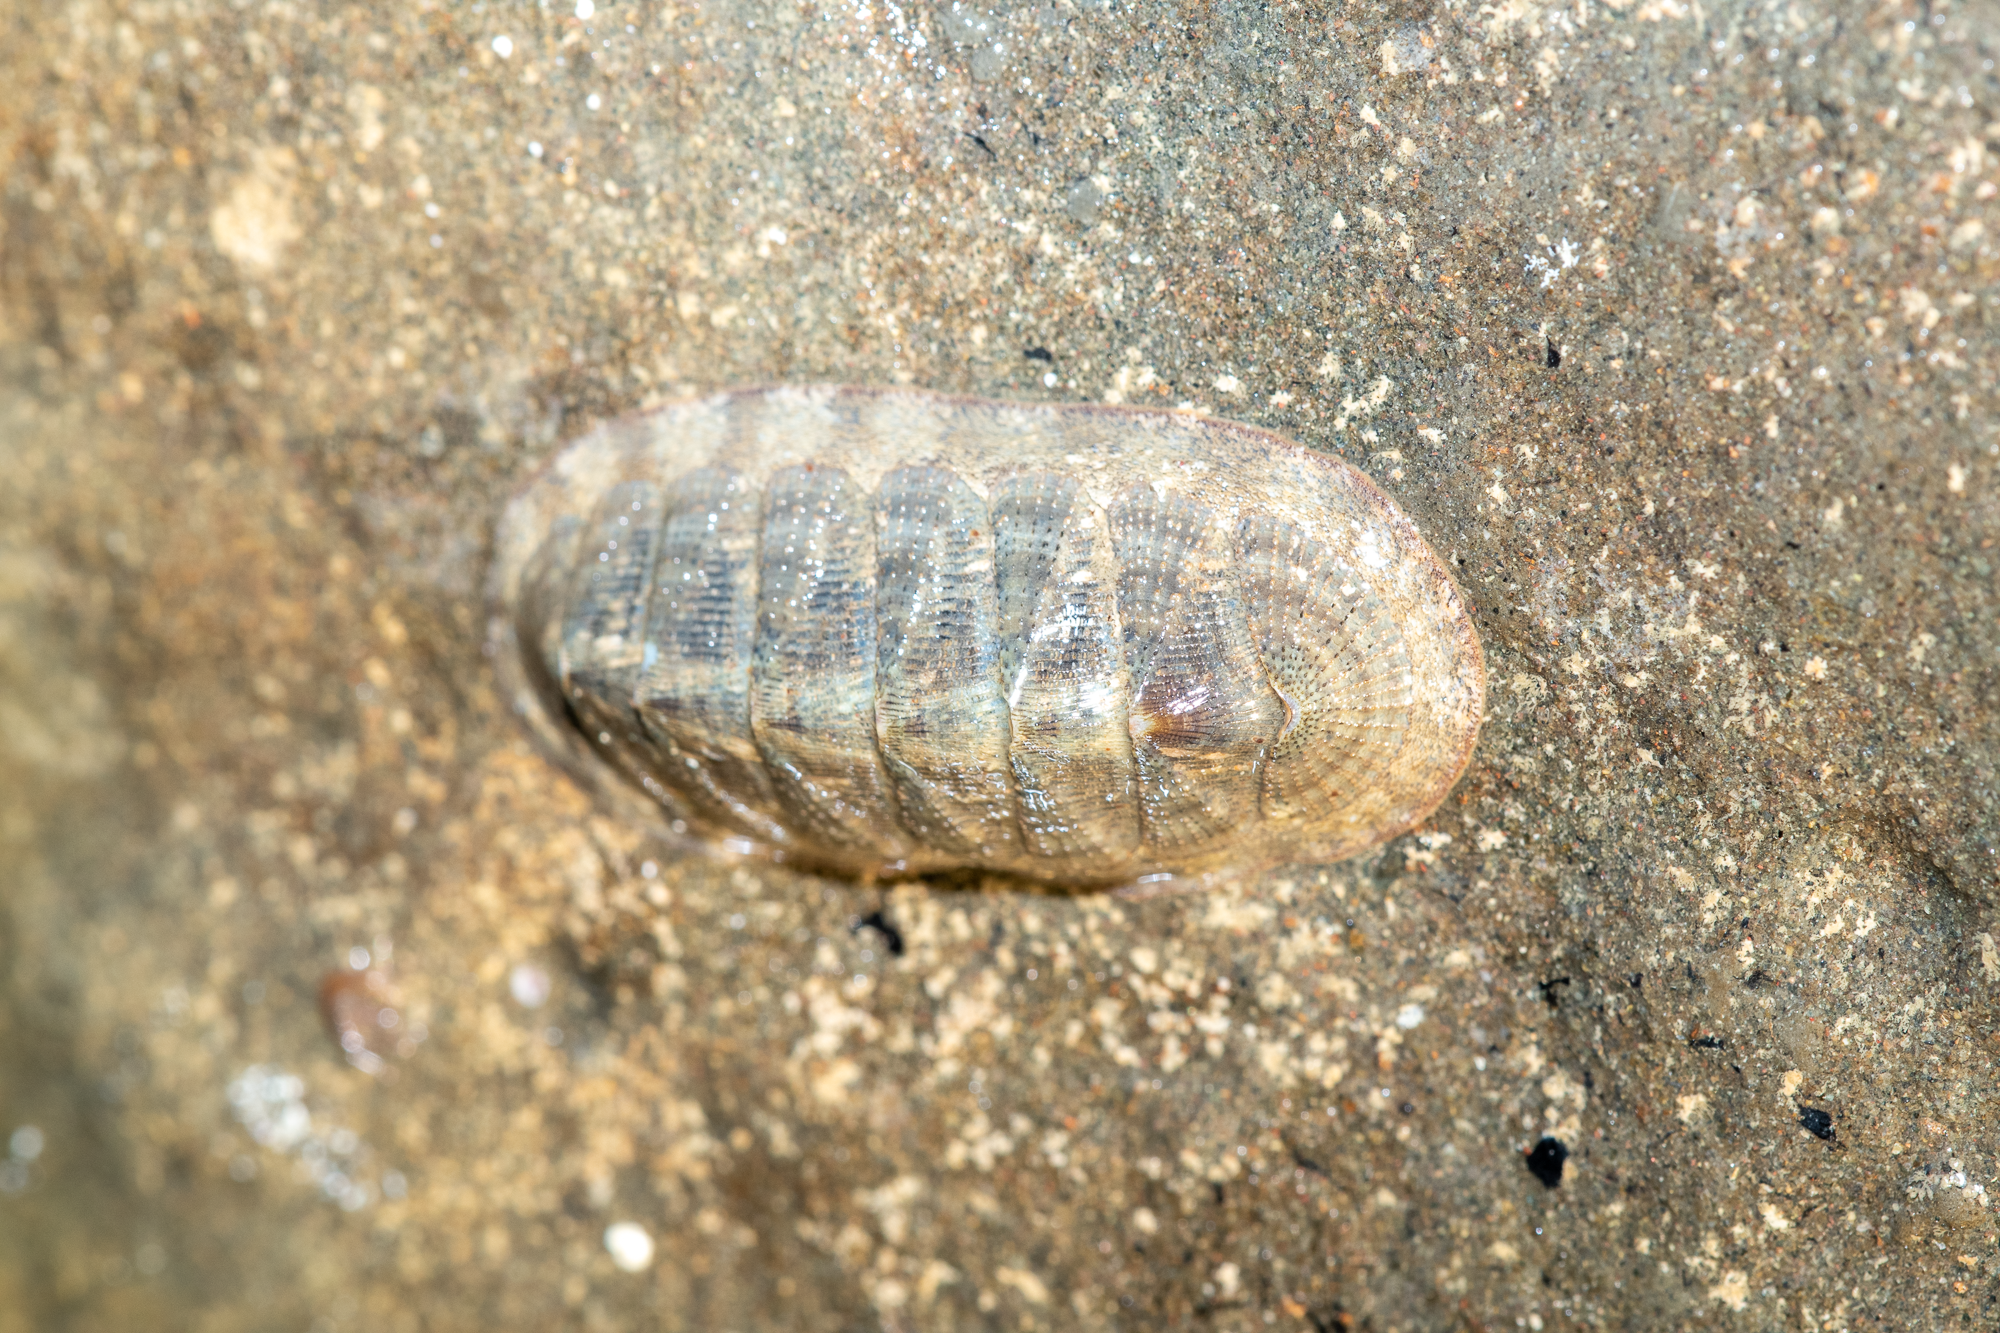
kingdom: Animalia
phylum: Mollusca
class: Polyplacophora
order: Chitonida
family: Ischnochitonidae
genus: Lepidozona
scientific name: Lepidozona cooperi
